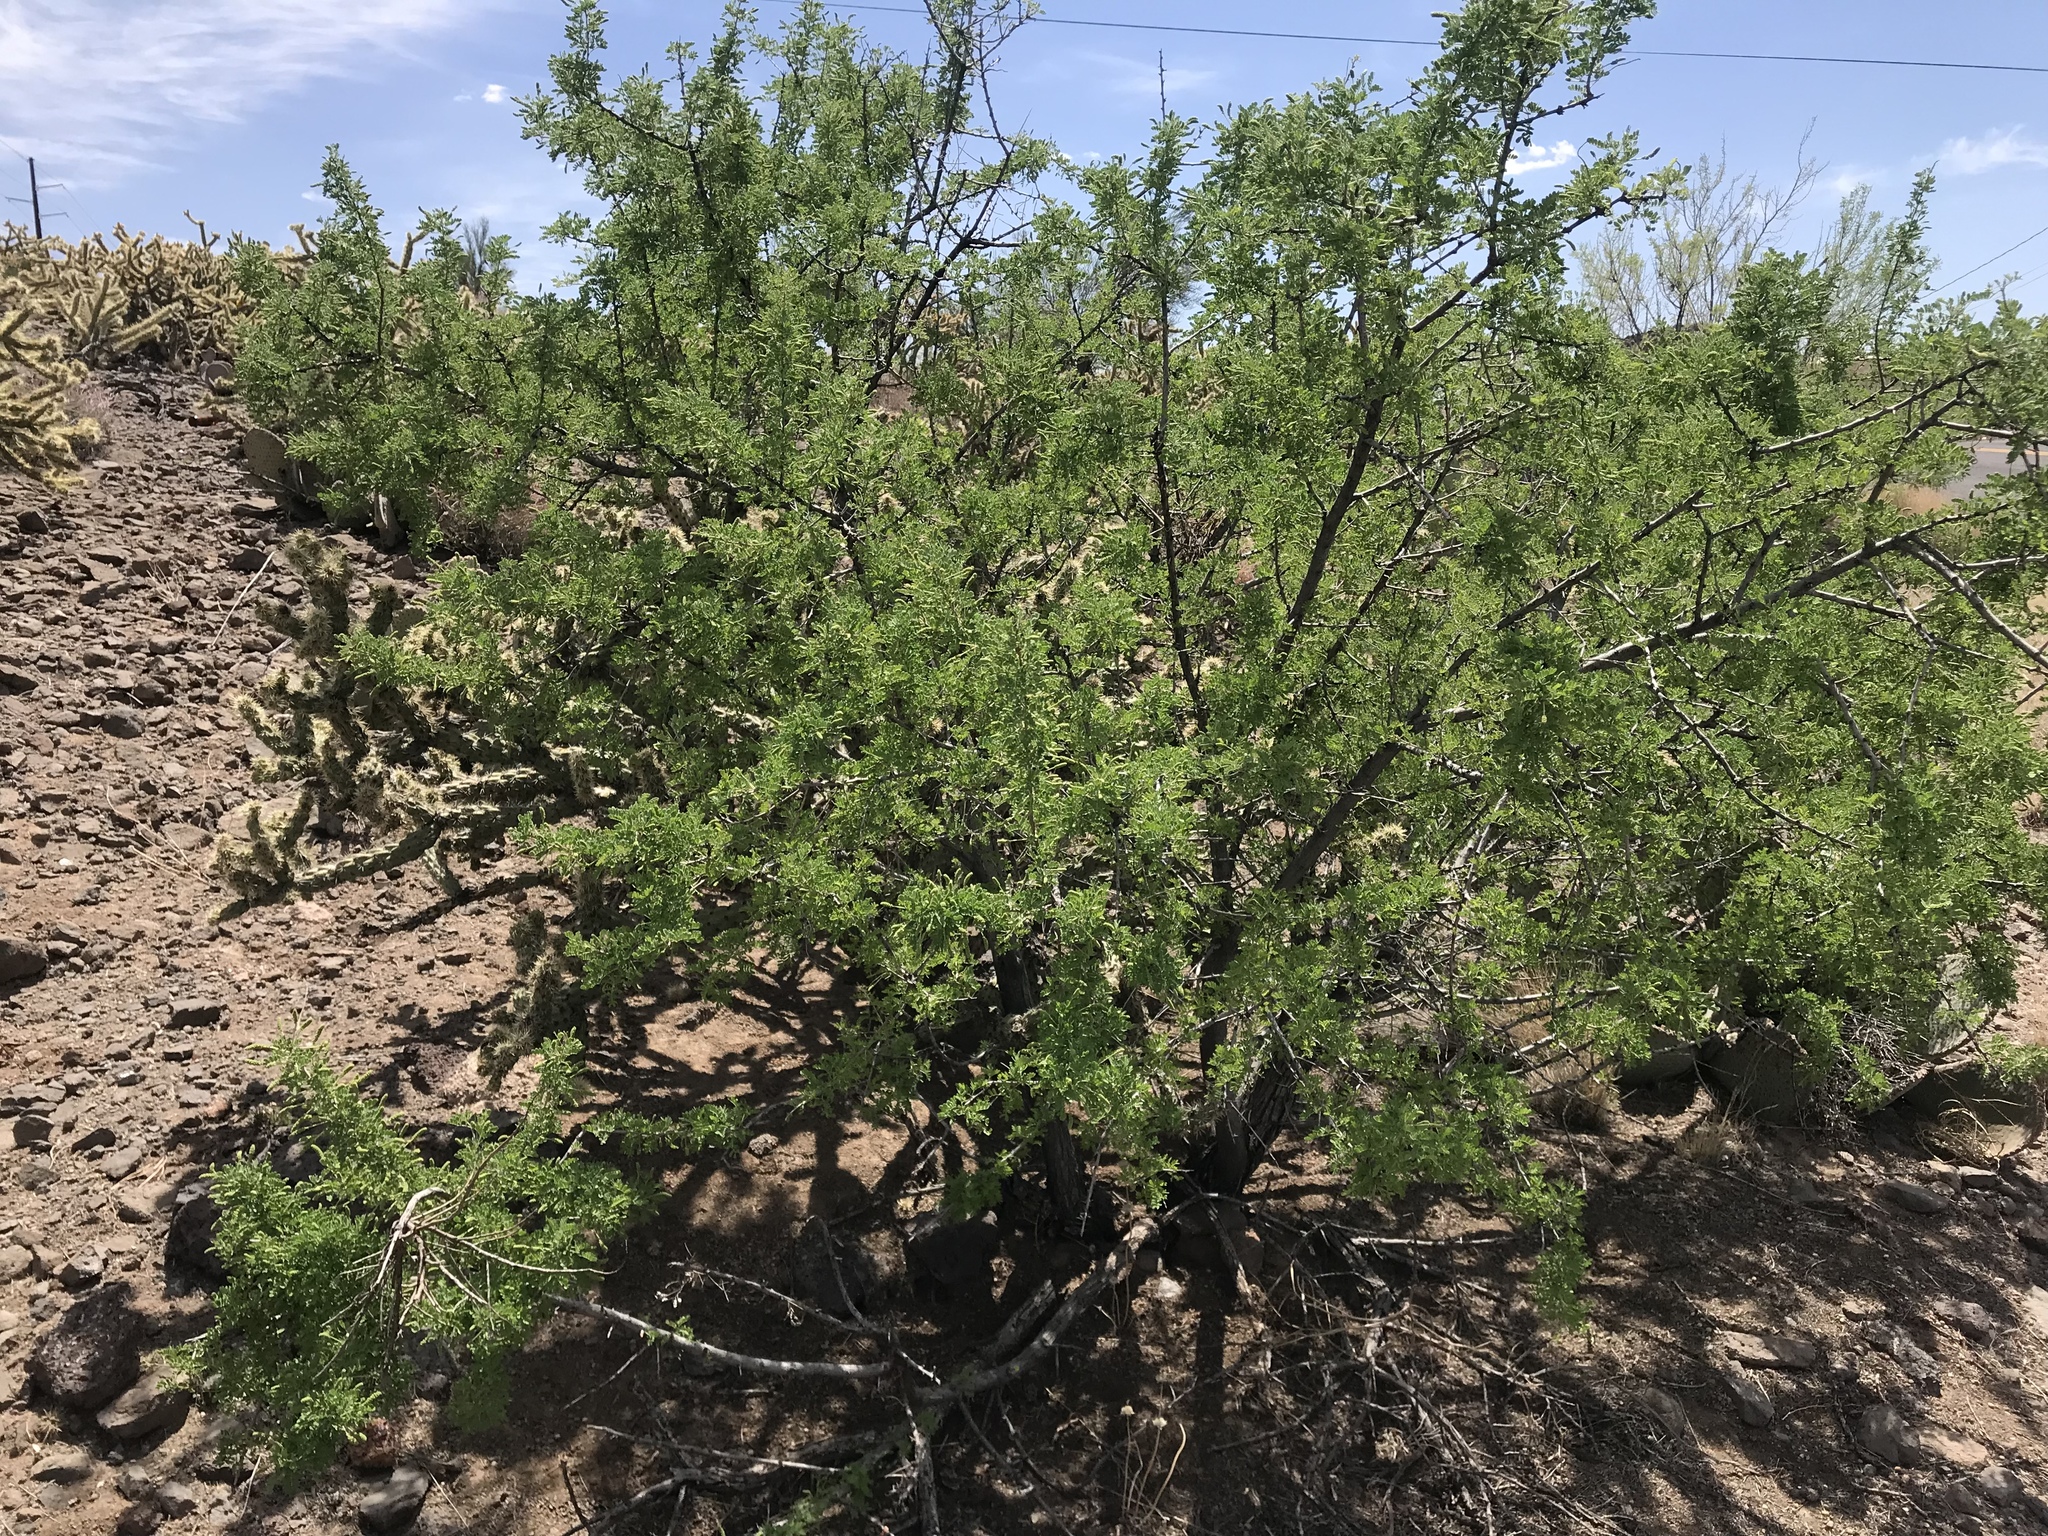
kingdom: Plantae
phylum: Tracheophyta
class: Magnoliopsida
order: Fabales
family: Fabaceae
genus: Senegalia
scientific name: Senegalia greggii
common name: Texas-mimosa
